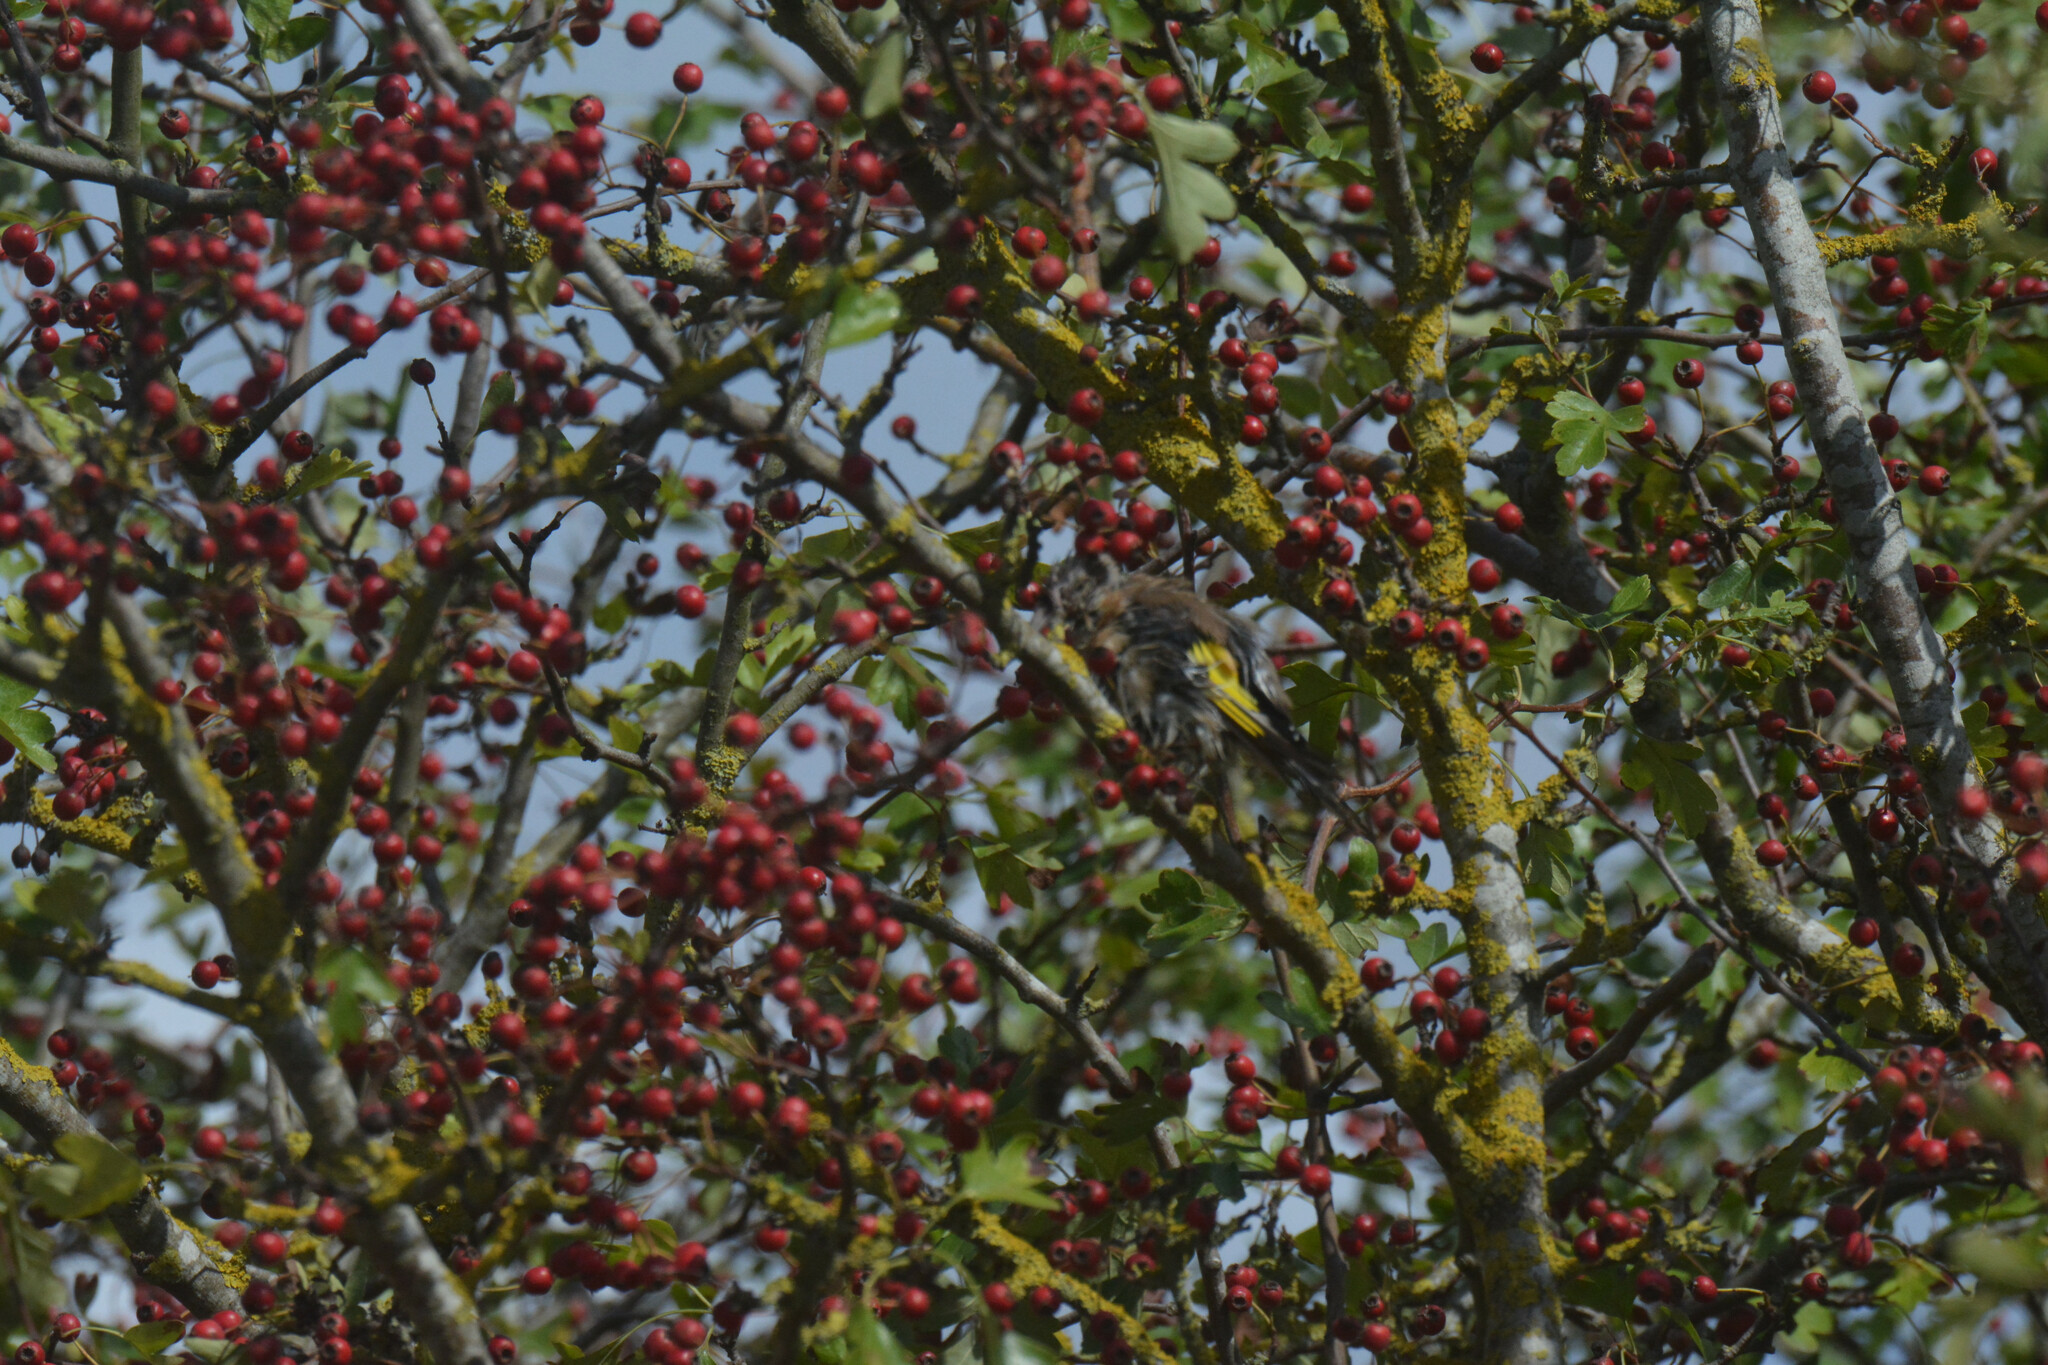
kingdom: Animalia
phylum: Chordata
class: Aves
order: Passeriformes
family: Fringillidae
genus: Carduelis
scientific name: Carduelis carduelis
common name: European goldfinch
